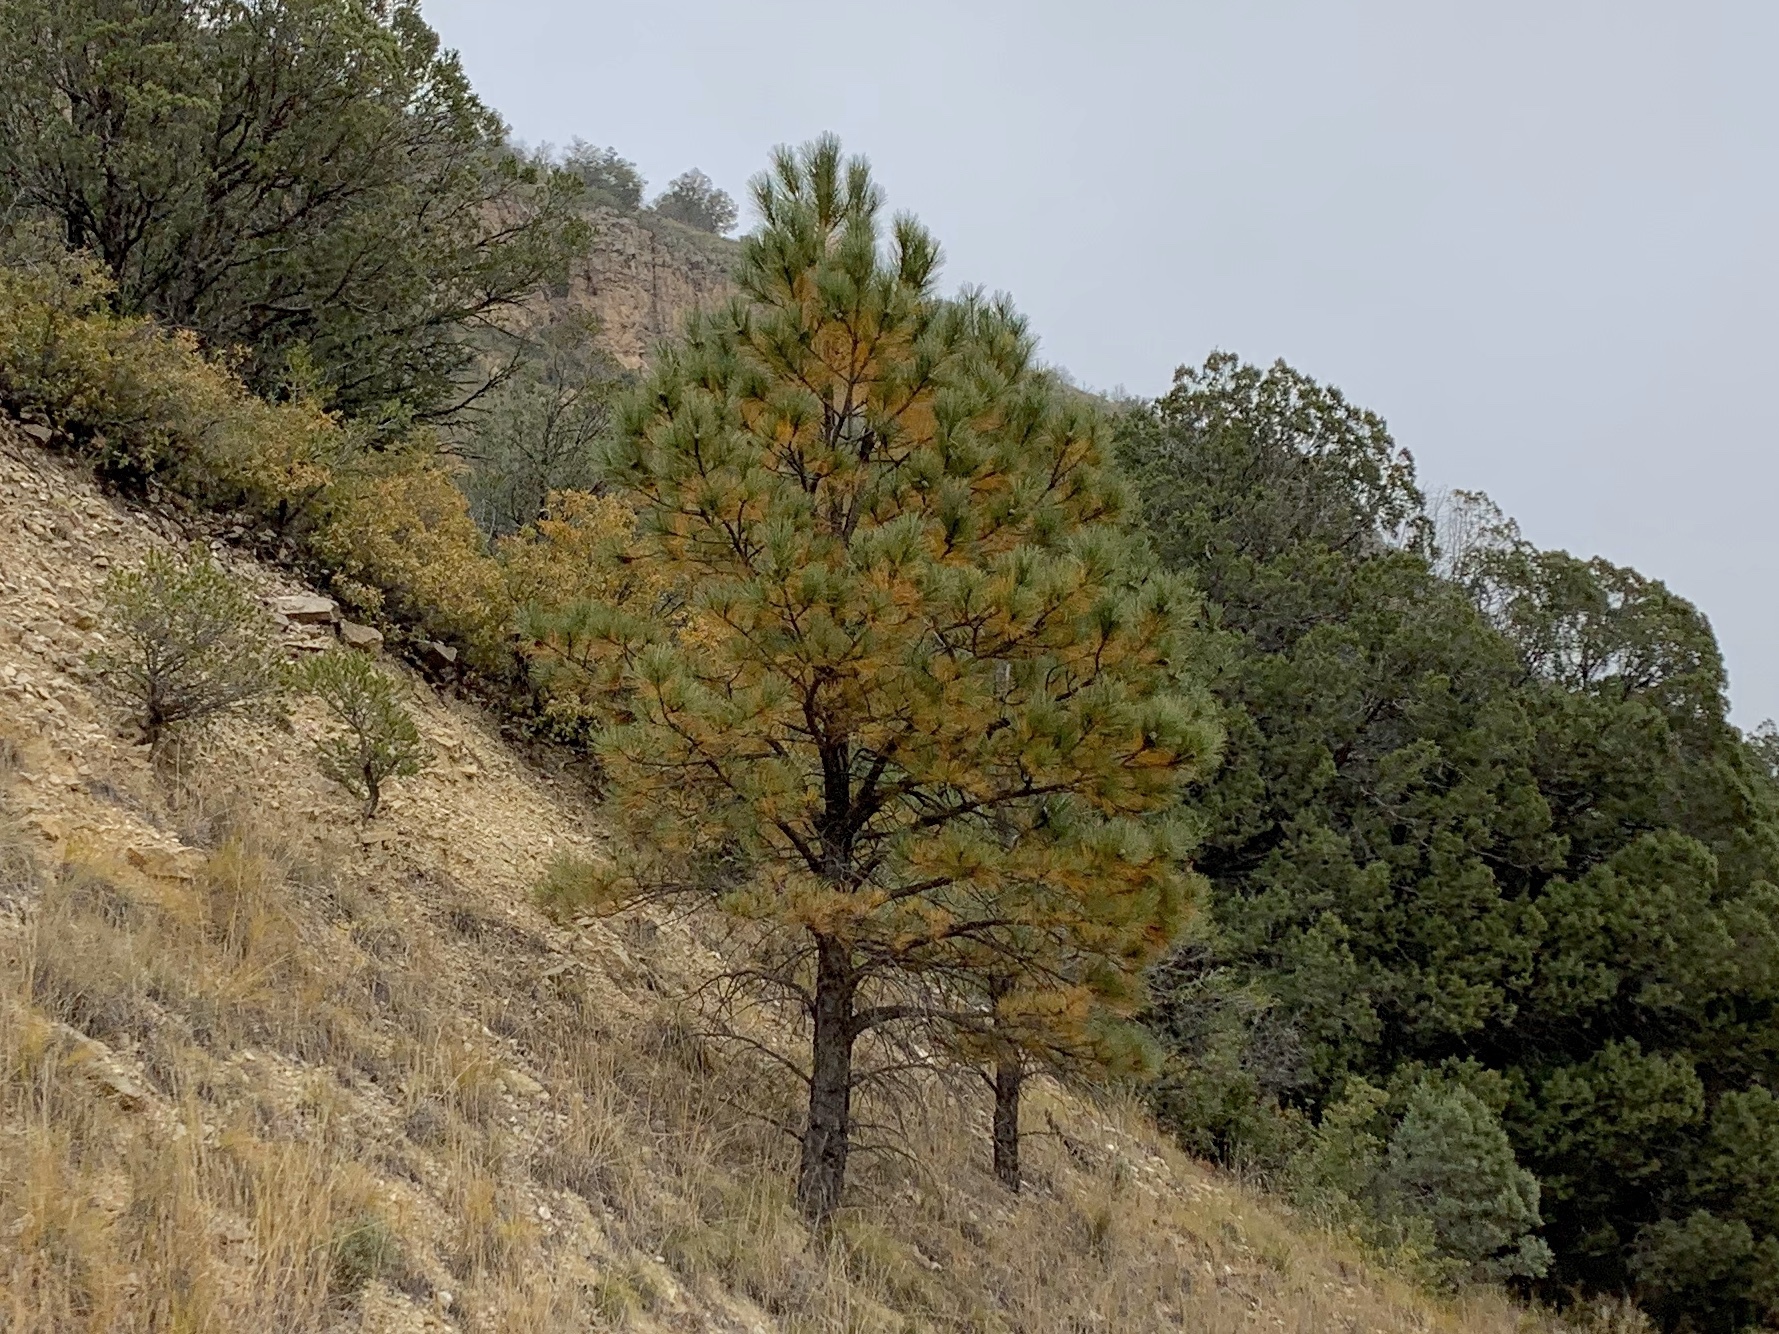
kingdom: Plantae
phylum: Tracheophyta
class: Pinopsida
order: Pinales
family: Pinaceae
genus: Pinus
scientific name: Pinus ponderosa
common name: Western yellow-pine
